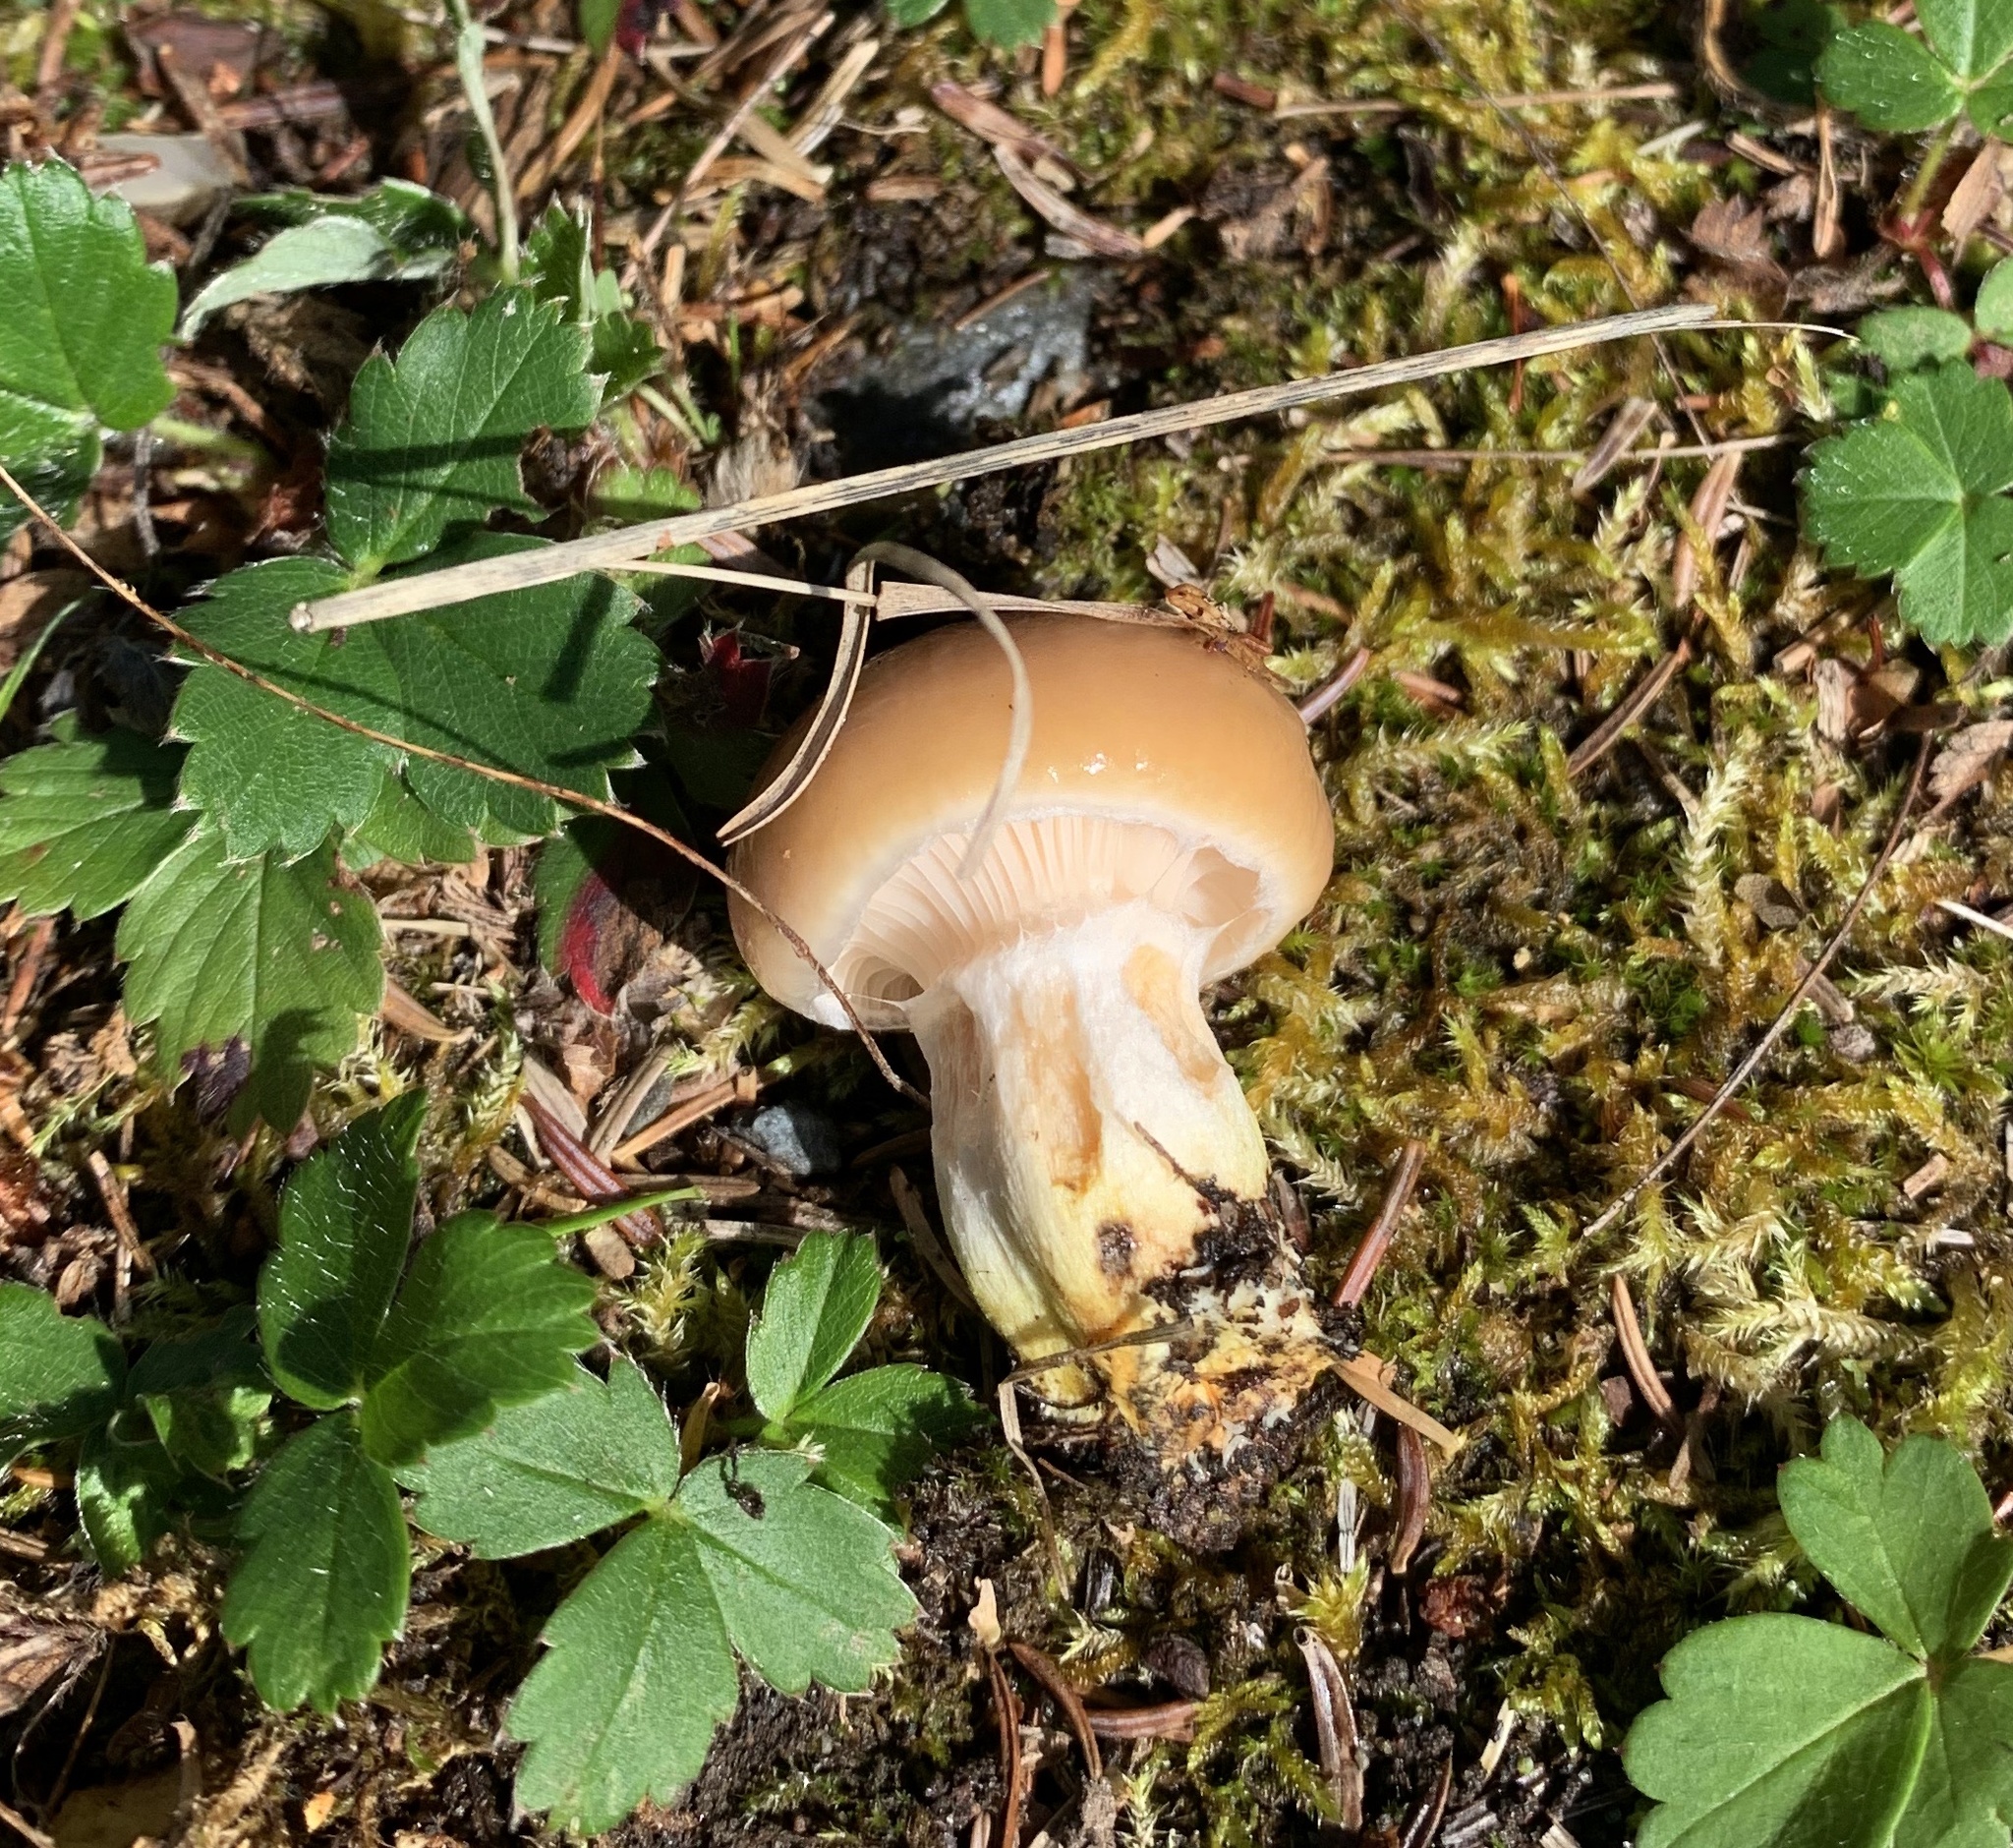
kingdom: Fungi
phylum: Basidiomycota
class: Agaricomycetes
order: Boletales
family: Gomphidiaceae
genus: Gomphidius
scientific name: Gomphidius borealis
